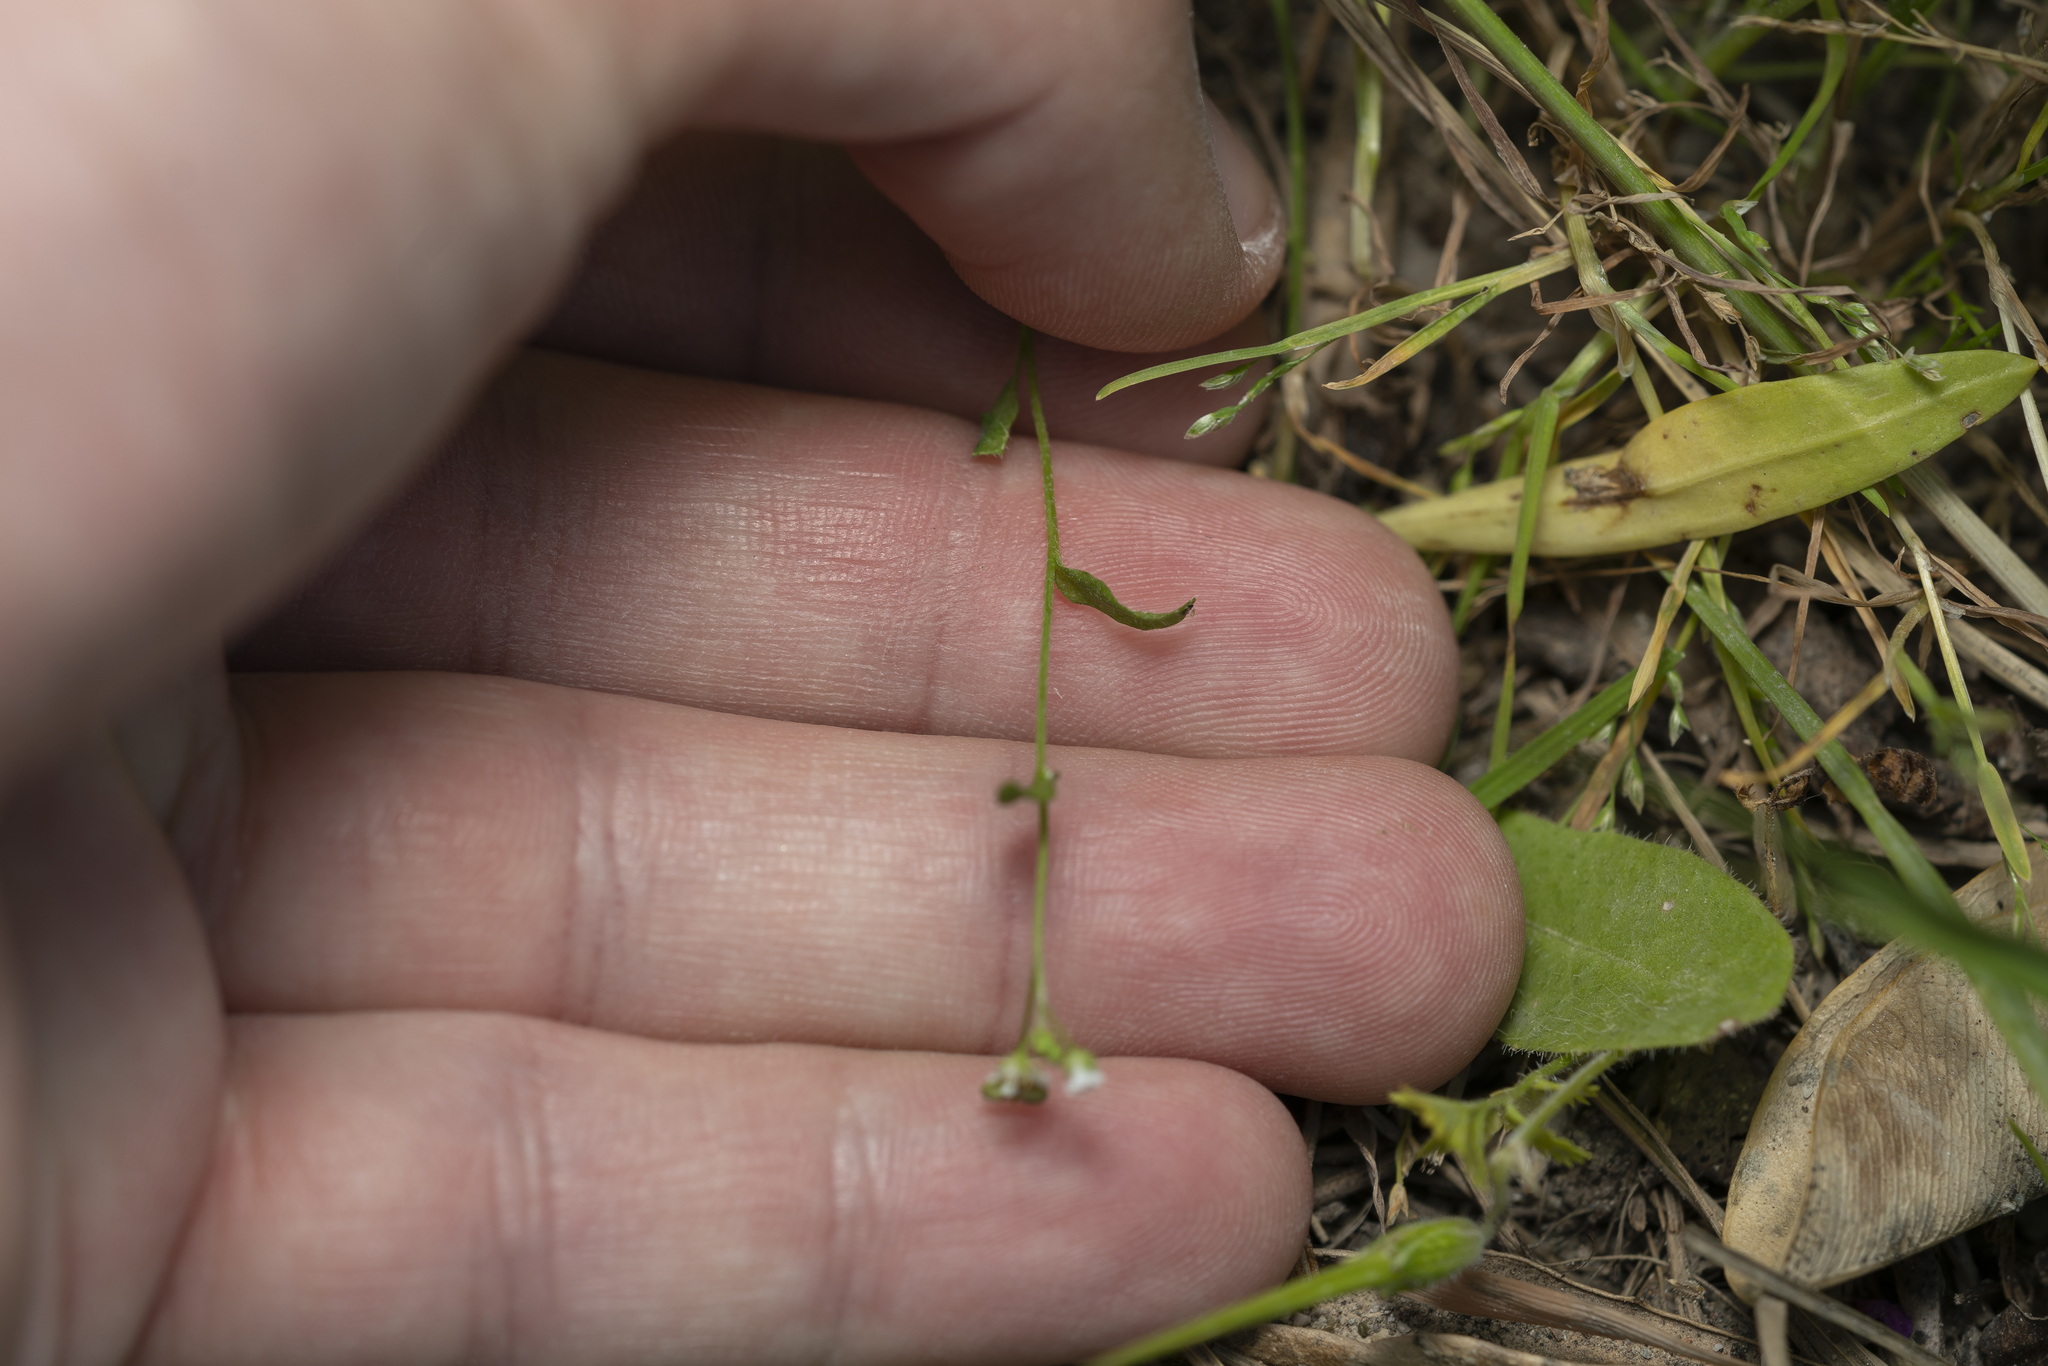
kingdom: Plantae
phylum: Tracheophyta
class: Magnoliopsida
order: Brassicales
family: Brassicaceae
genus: Capsella
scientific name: Capsella bursa-pastoris
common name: Shepherd's purse
